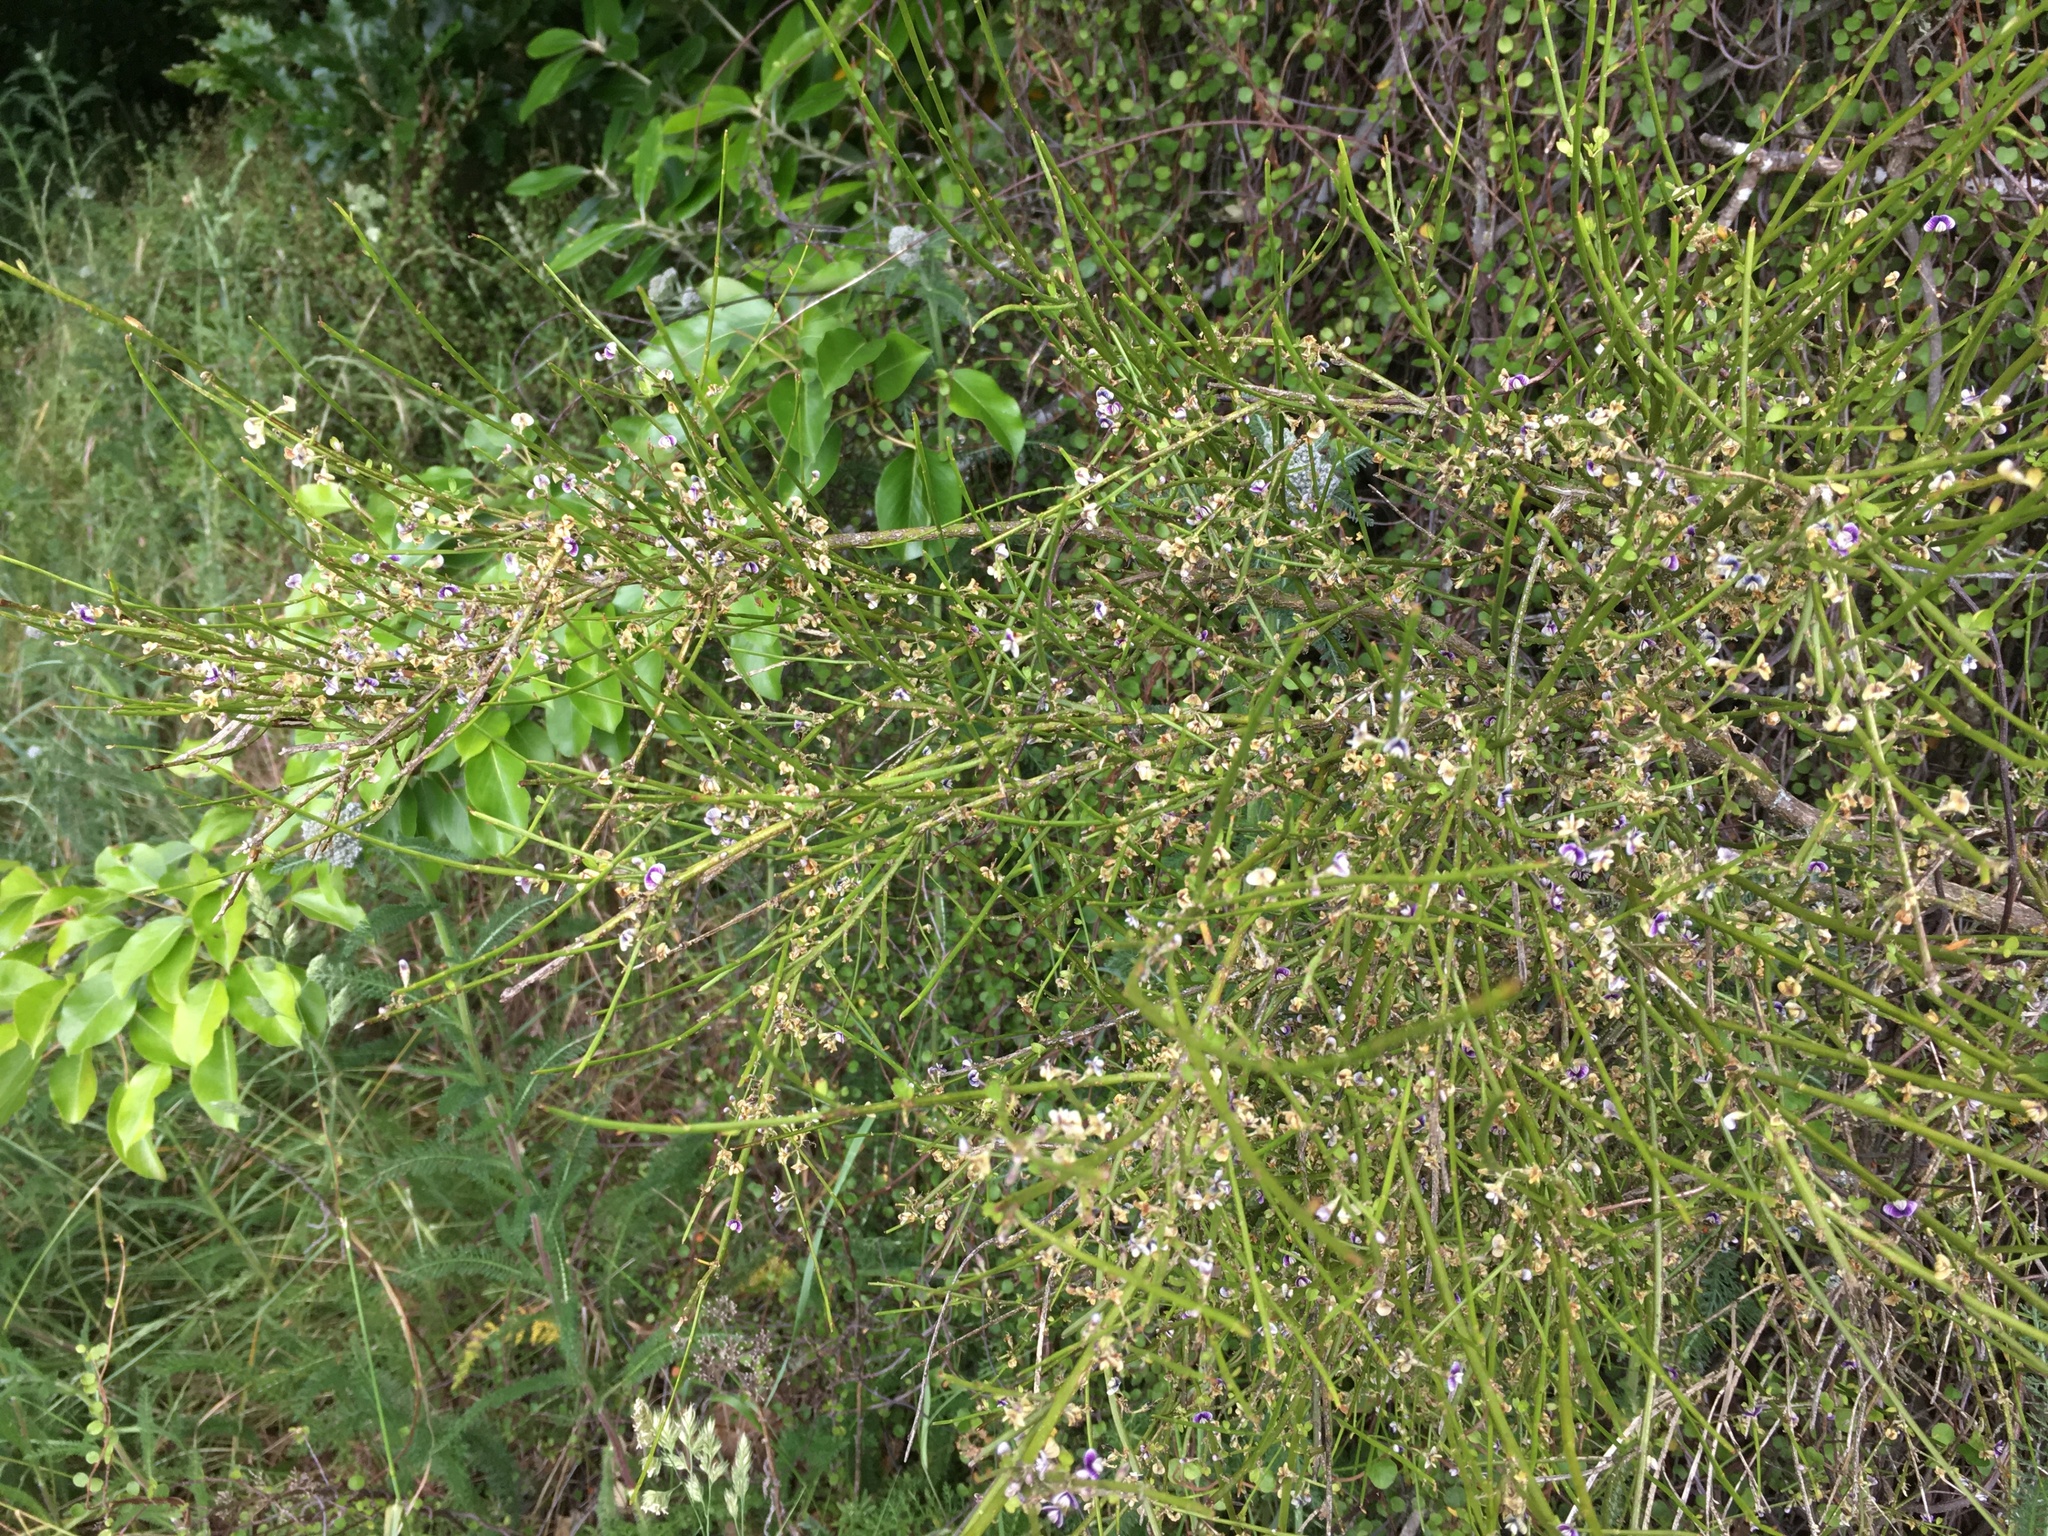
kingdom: Plantae
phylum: Tracheophyta
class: Magnoliopsida
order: Fabales
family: Fabaceae
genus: Carmichaelia
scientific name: Carmichaelia australis
